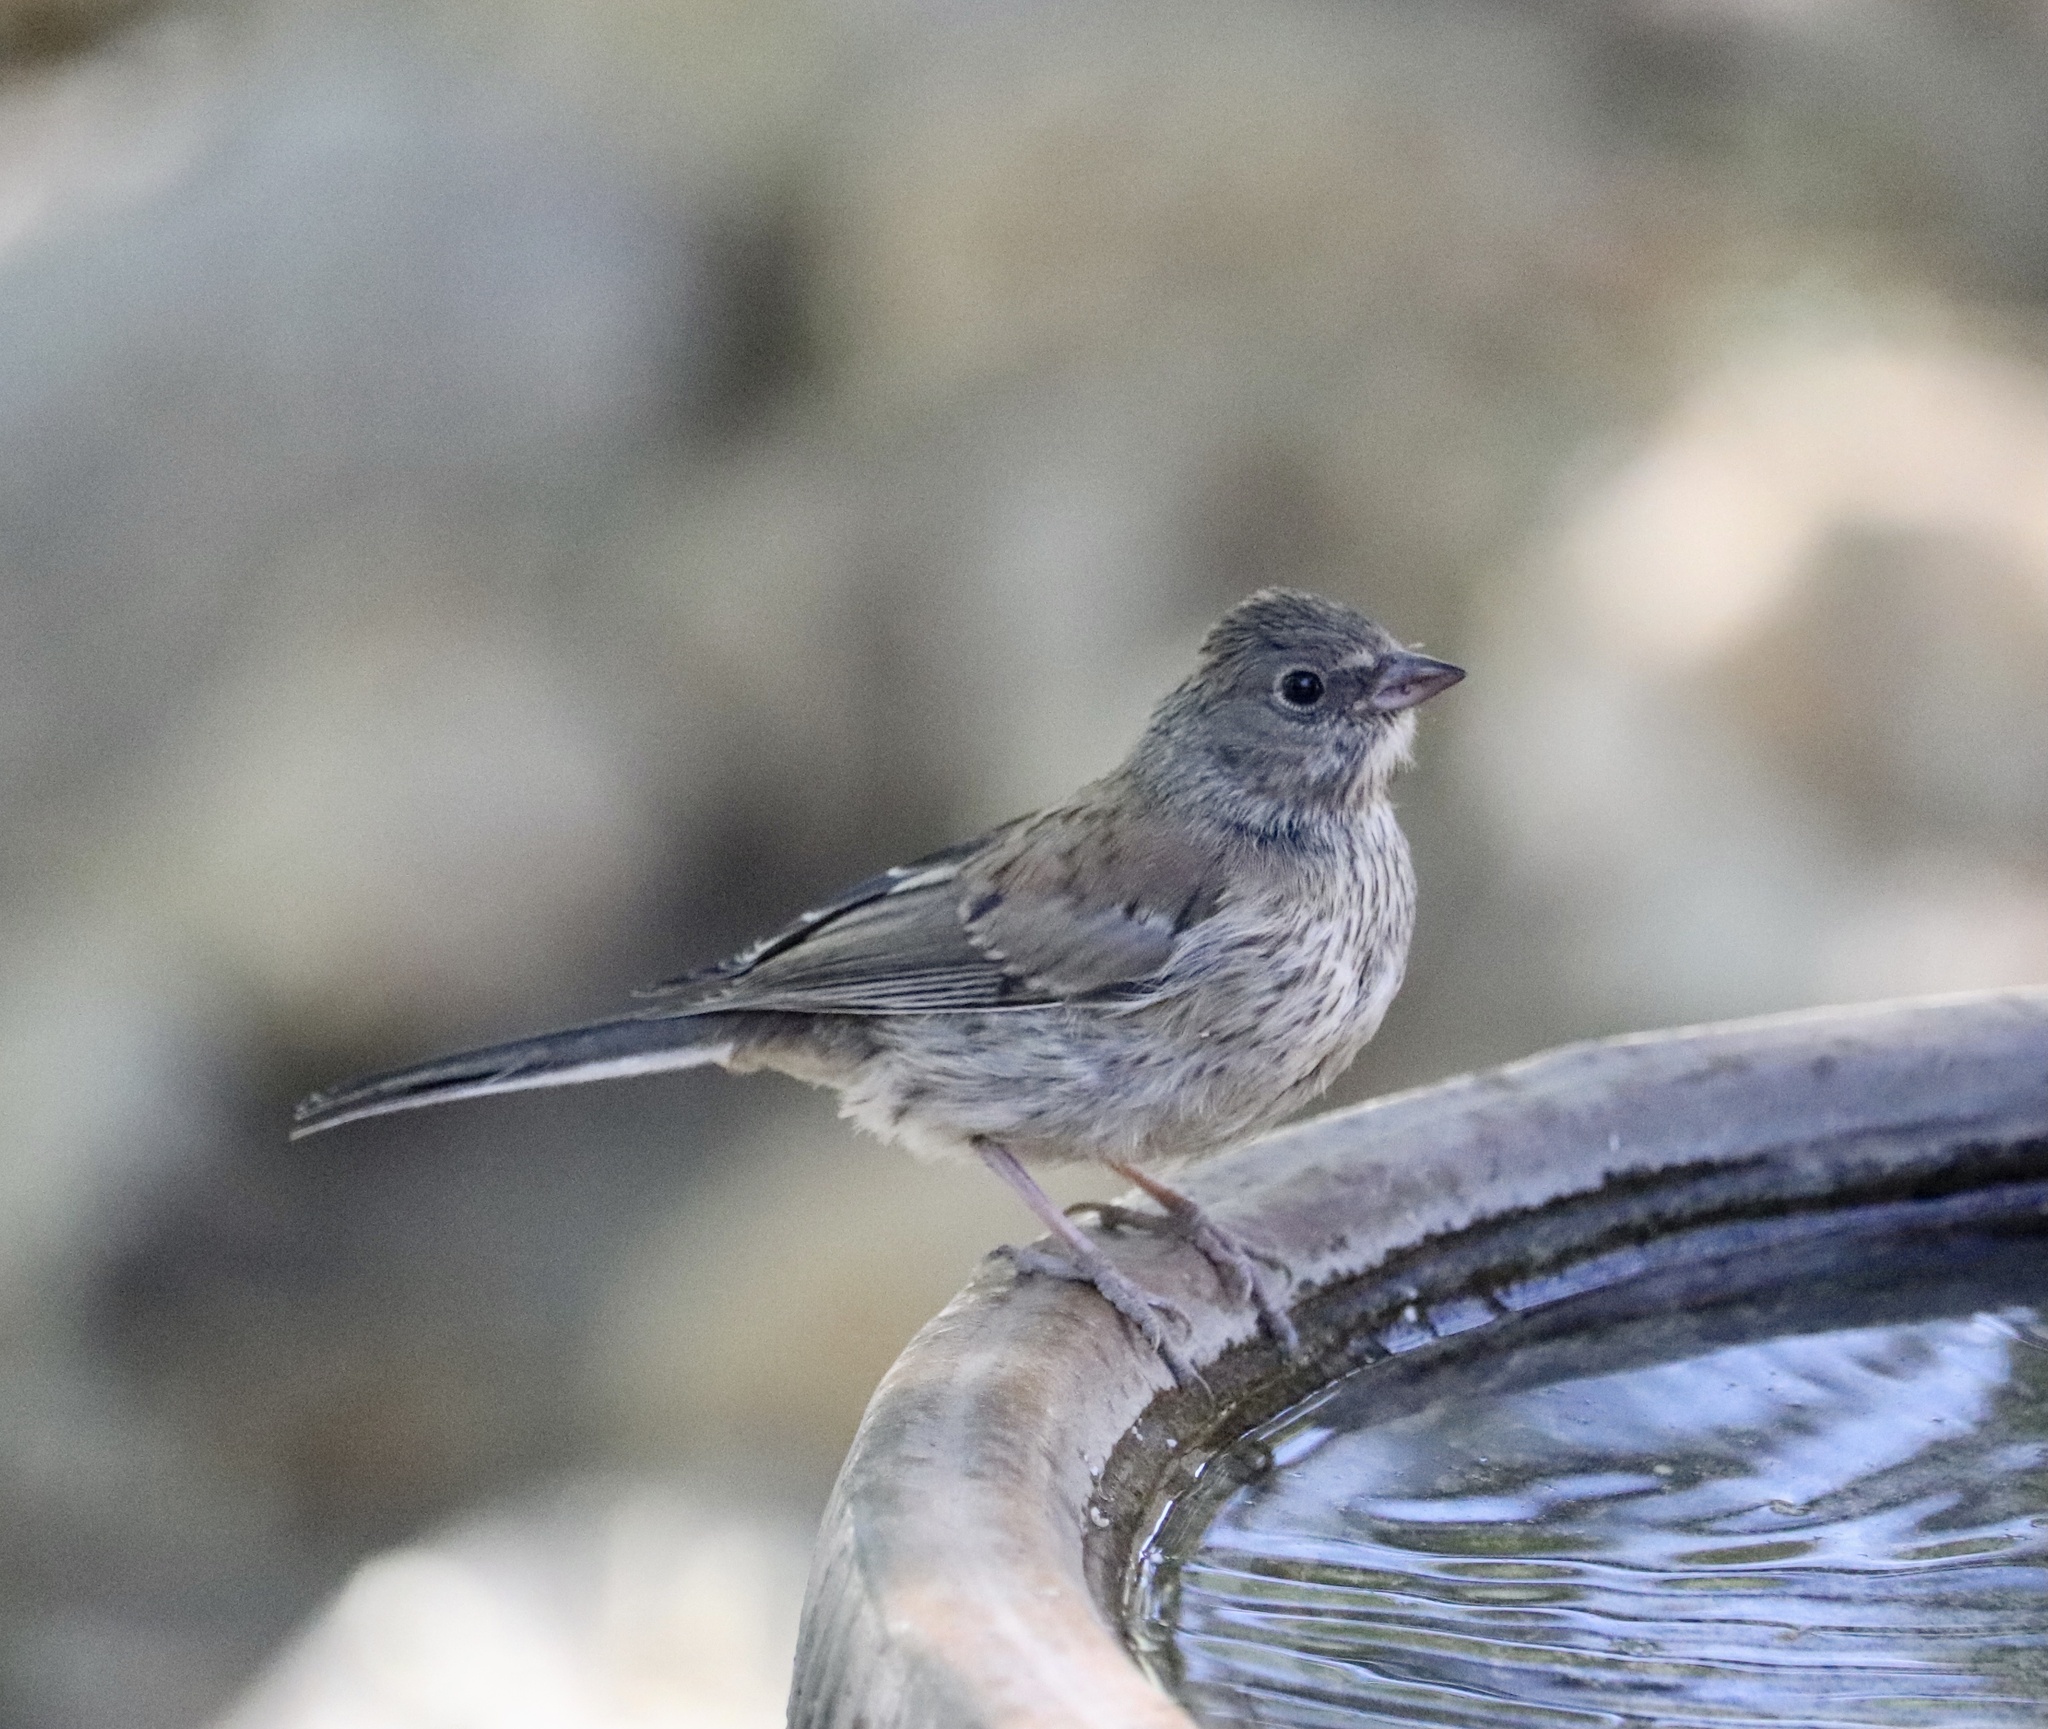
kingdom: Animalia
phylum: Chordata
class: Aves
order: Passeriformes
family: Passerellidae
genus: Junco
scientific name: Junco hyemalis
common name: Dark-eyed junco
